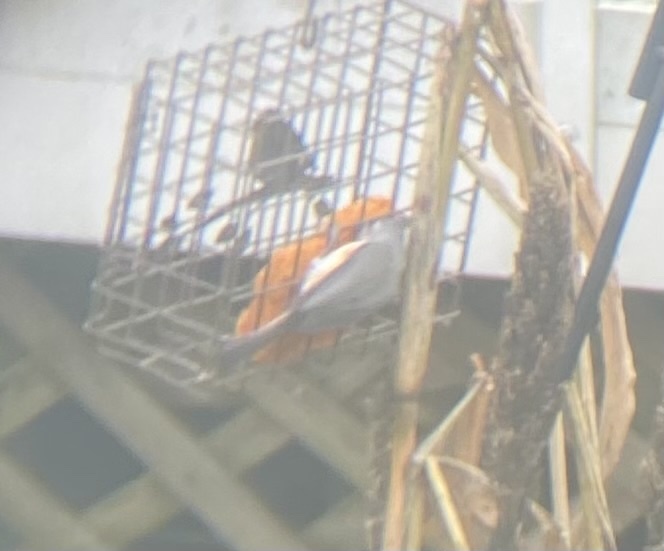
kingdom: Animalia
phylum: Chordata
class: Aves
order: Passeriformes
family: Paridae
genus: Baeolophus
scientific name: Baeolophus bicolor
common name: Tufted titmouse
